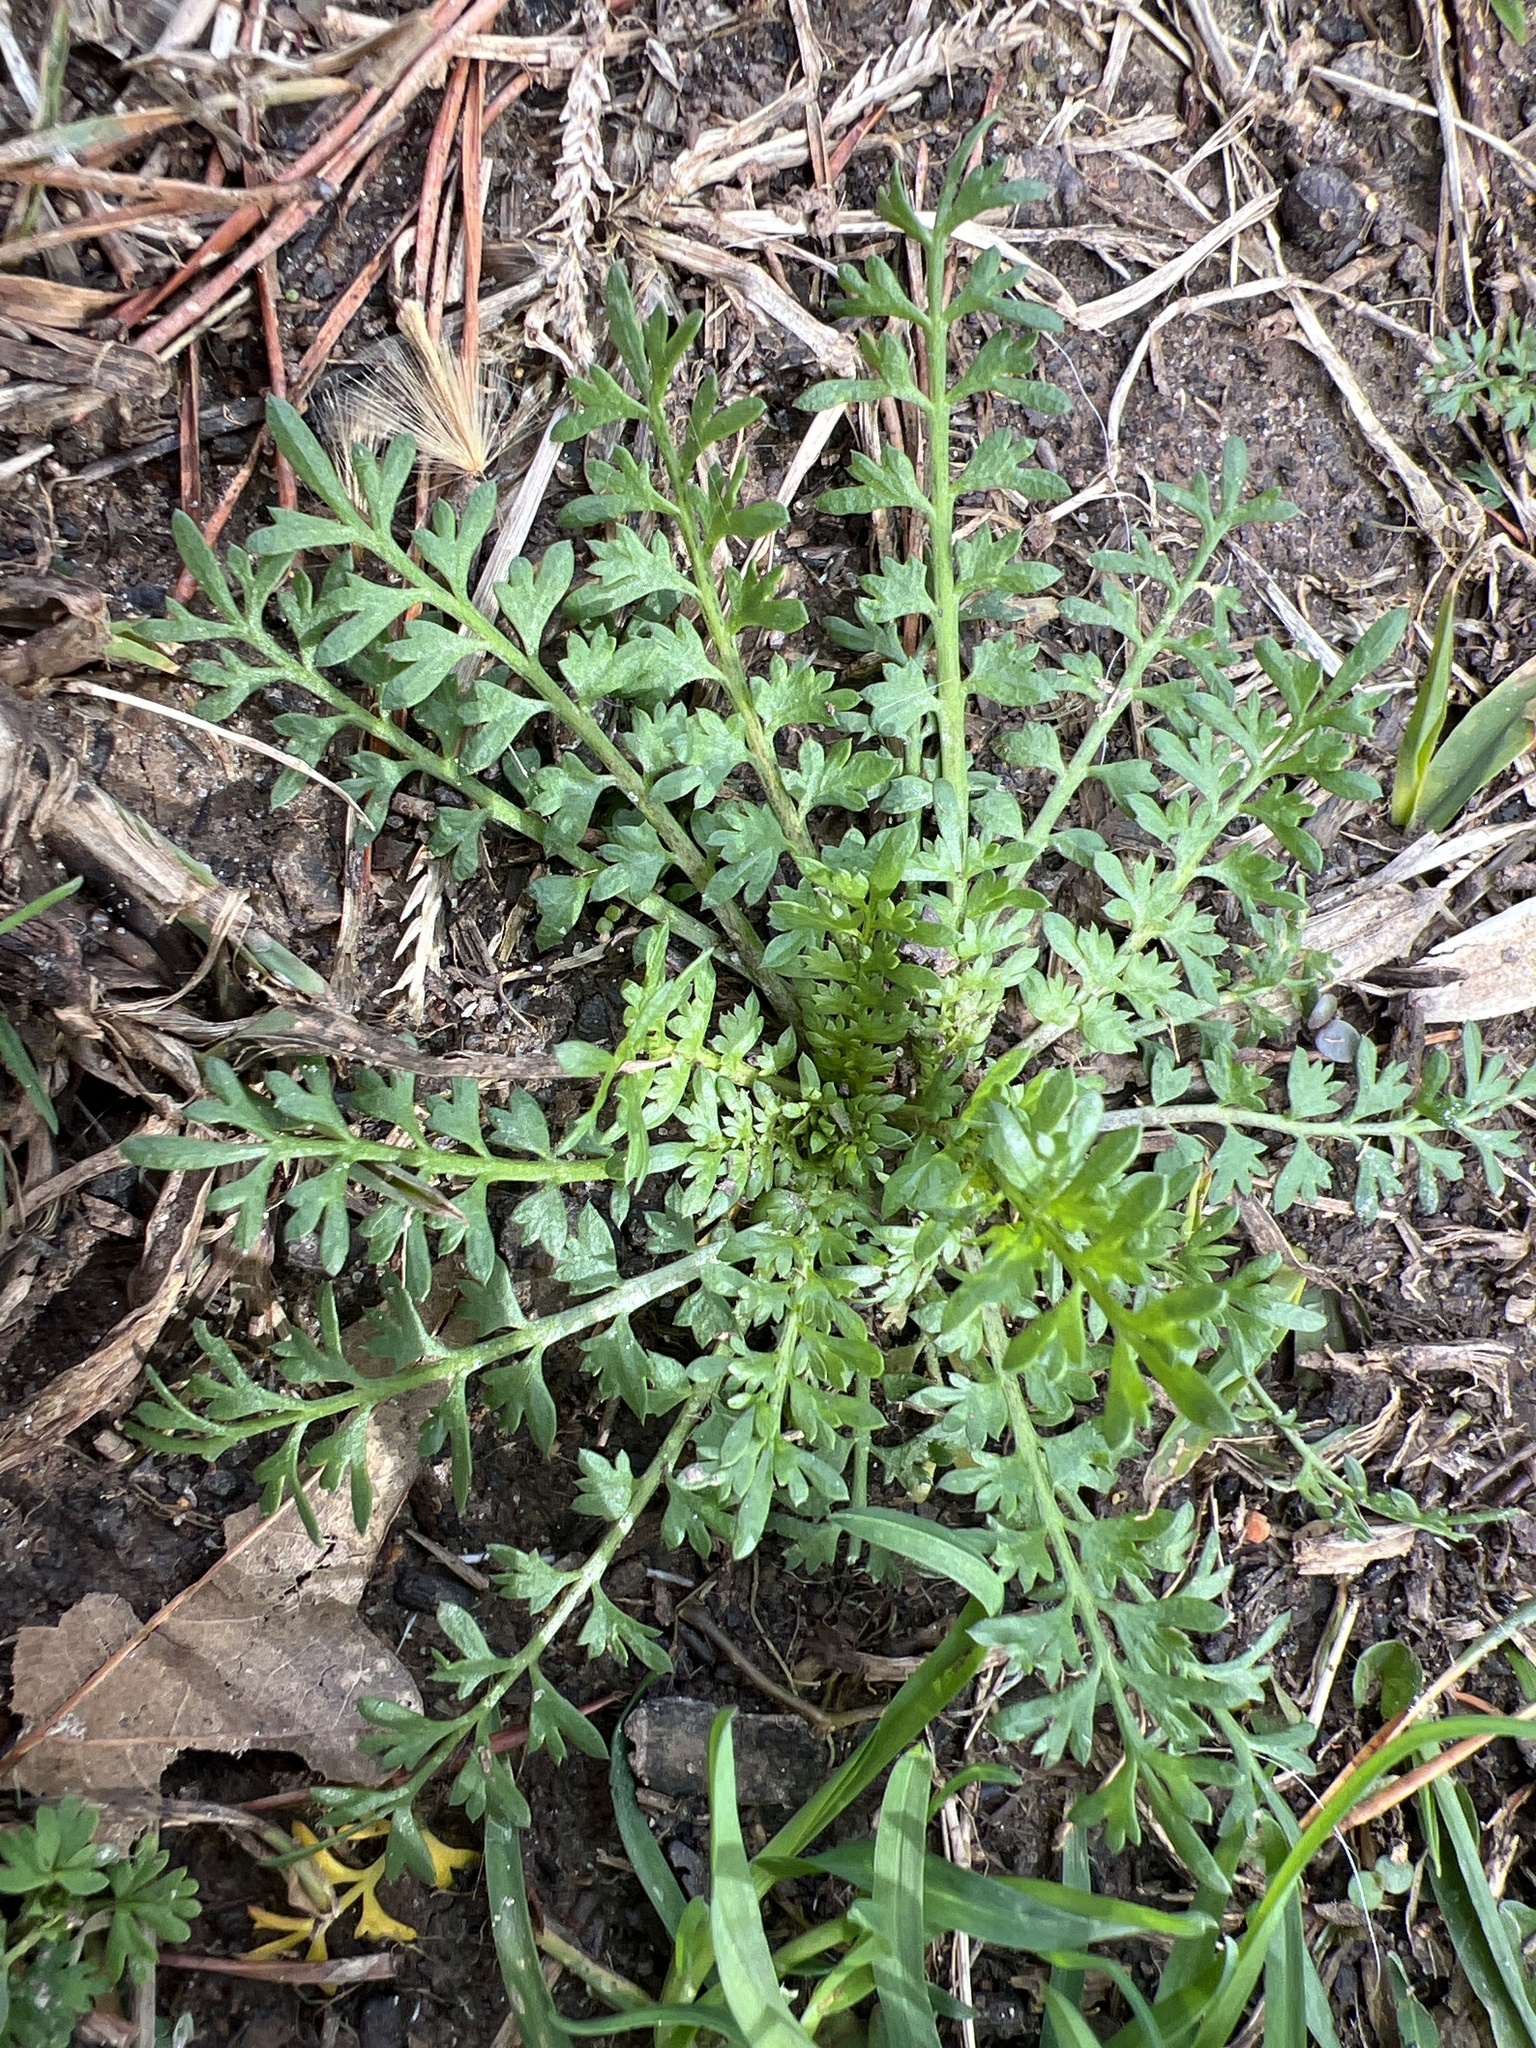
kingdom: Plantae
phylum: Tracheophyta
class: Magnoliopsida
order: Brassicales
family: Brassicaceae
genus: Lepidium
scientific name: Lepidium didymum
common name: Lesser swinecress
